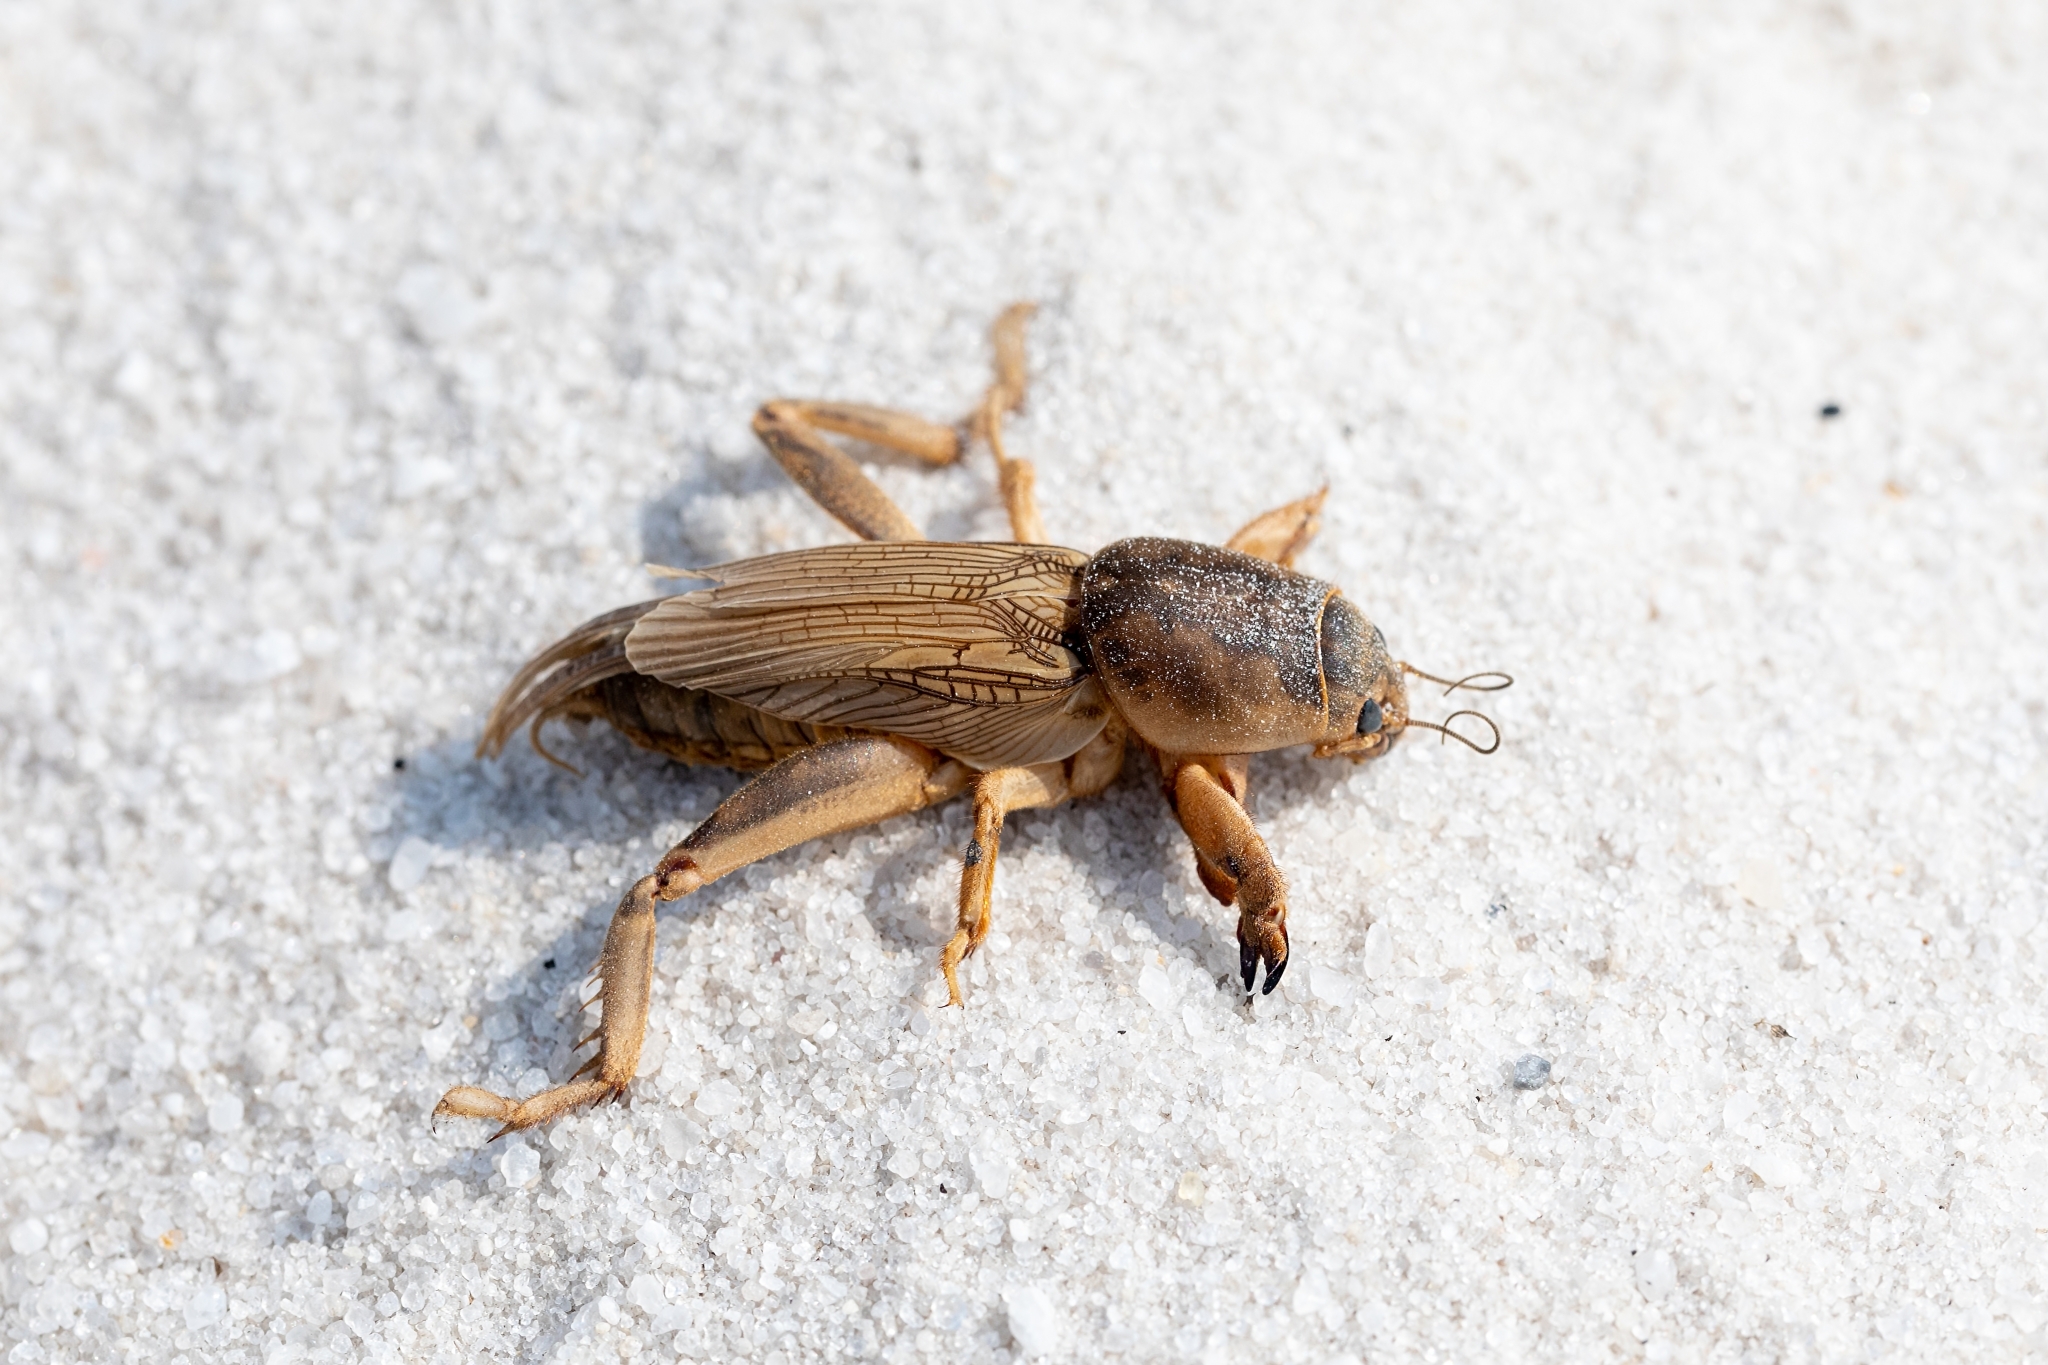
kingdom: Animalia
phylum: Arthropoda
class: Insecta
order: Orthoptera
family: Gryllotalpidae
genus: Neoscapteriscus
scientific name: Neoscapteriscus vicinus
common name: Tawny mole cricket
